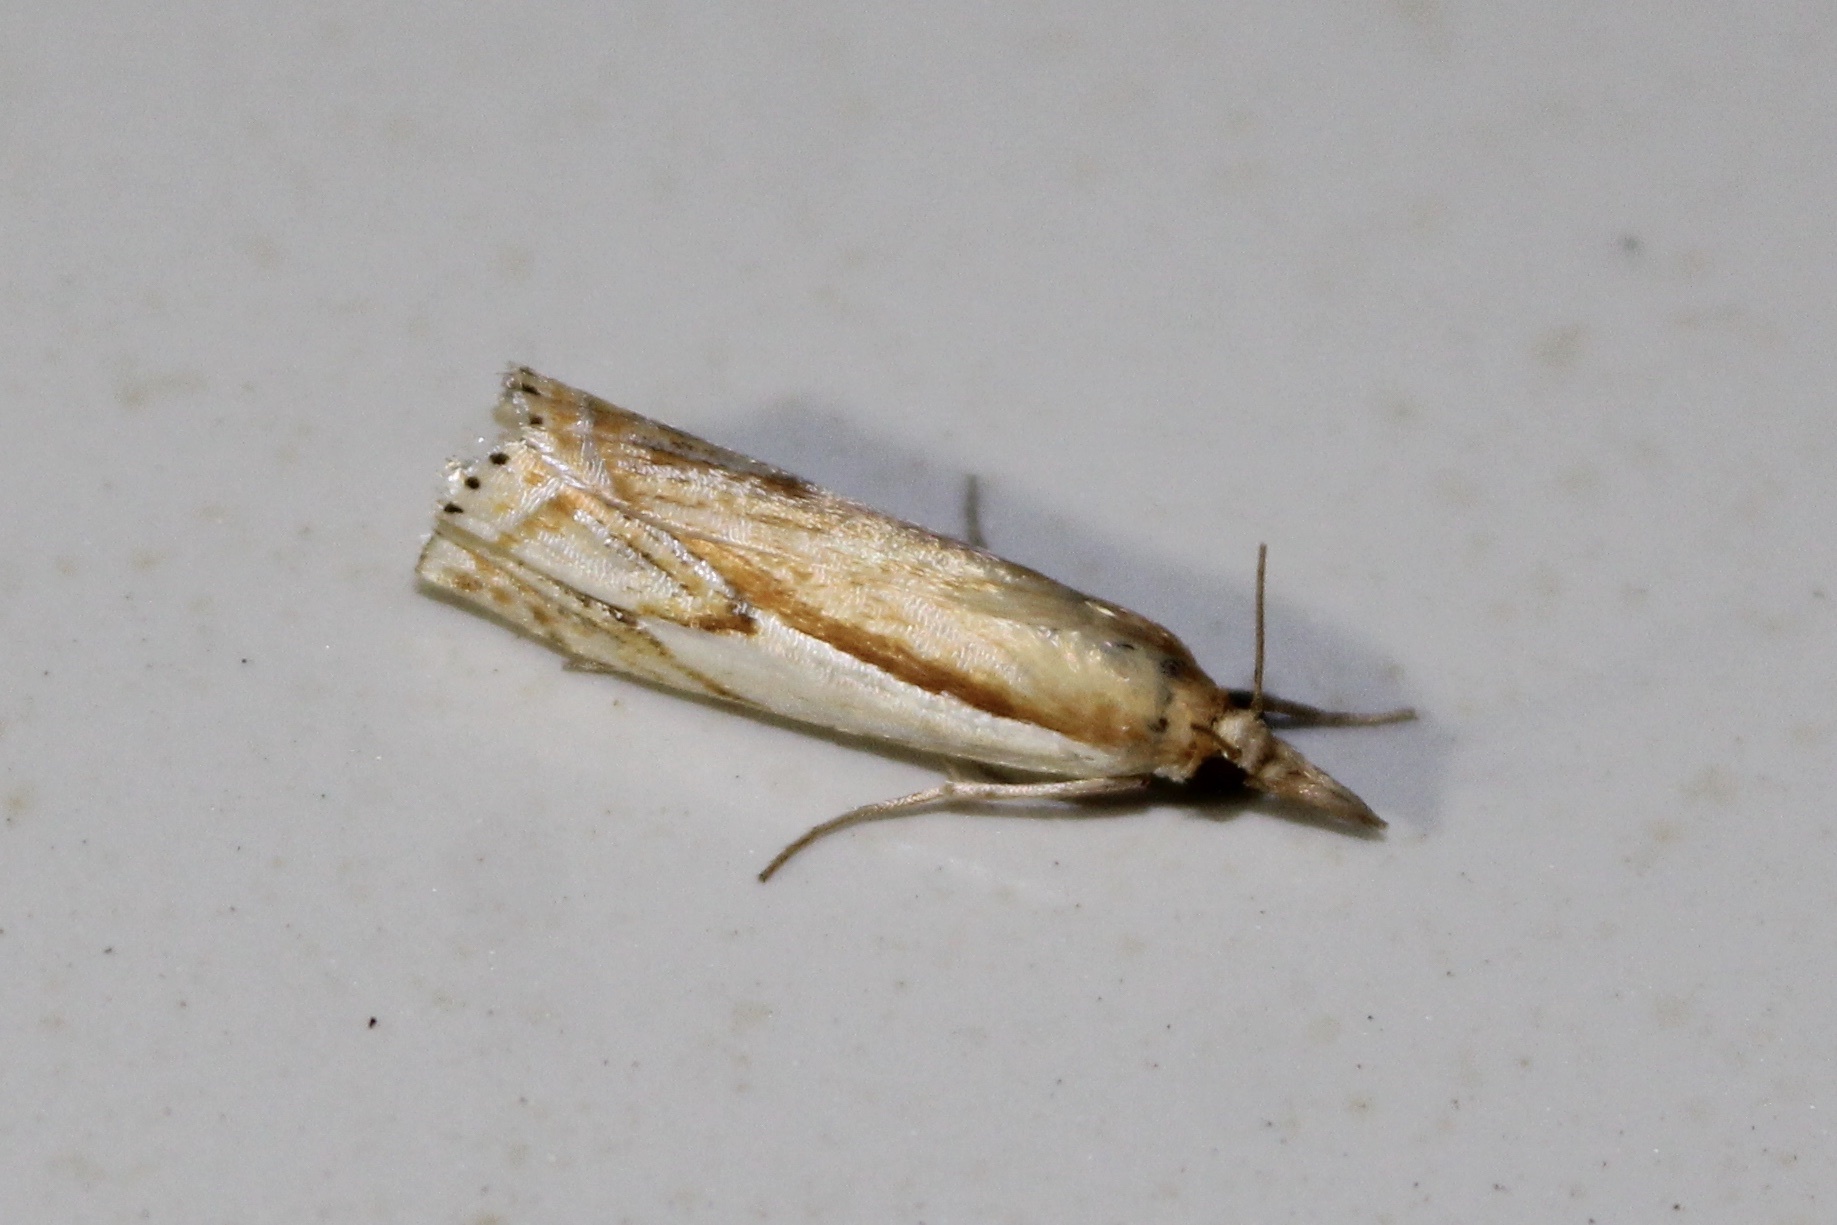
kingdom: Animalia
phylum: Arthropoda
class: Insecta
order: Lepidoptera
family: Crambidae
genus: Crambus
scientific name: Crambus agitatellus
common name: Double-banded grass-veneer
